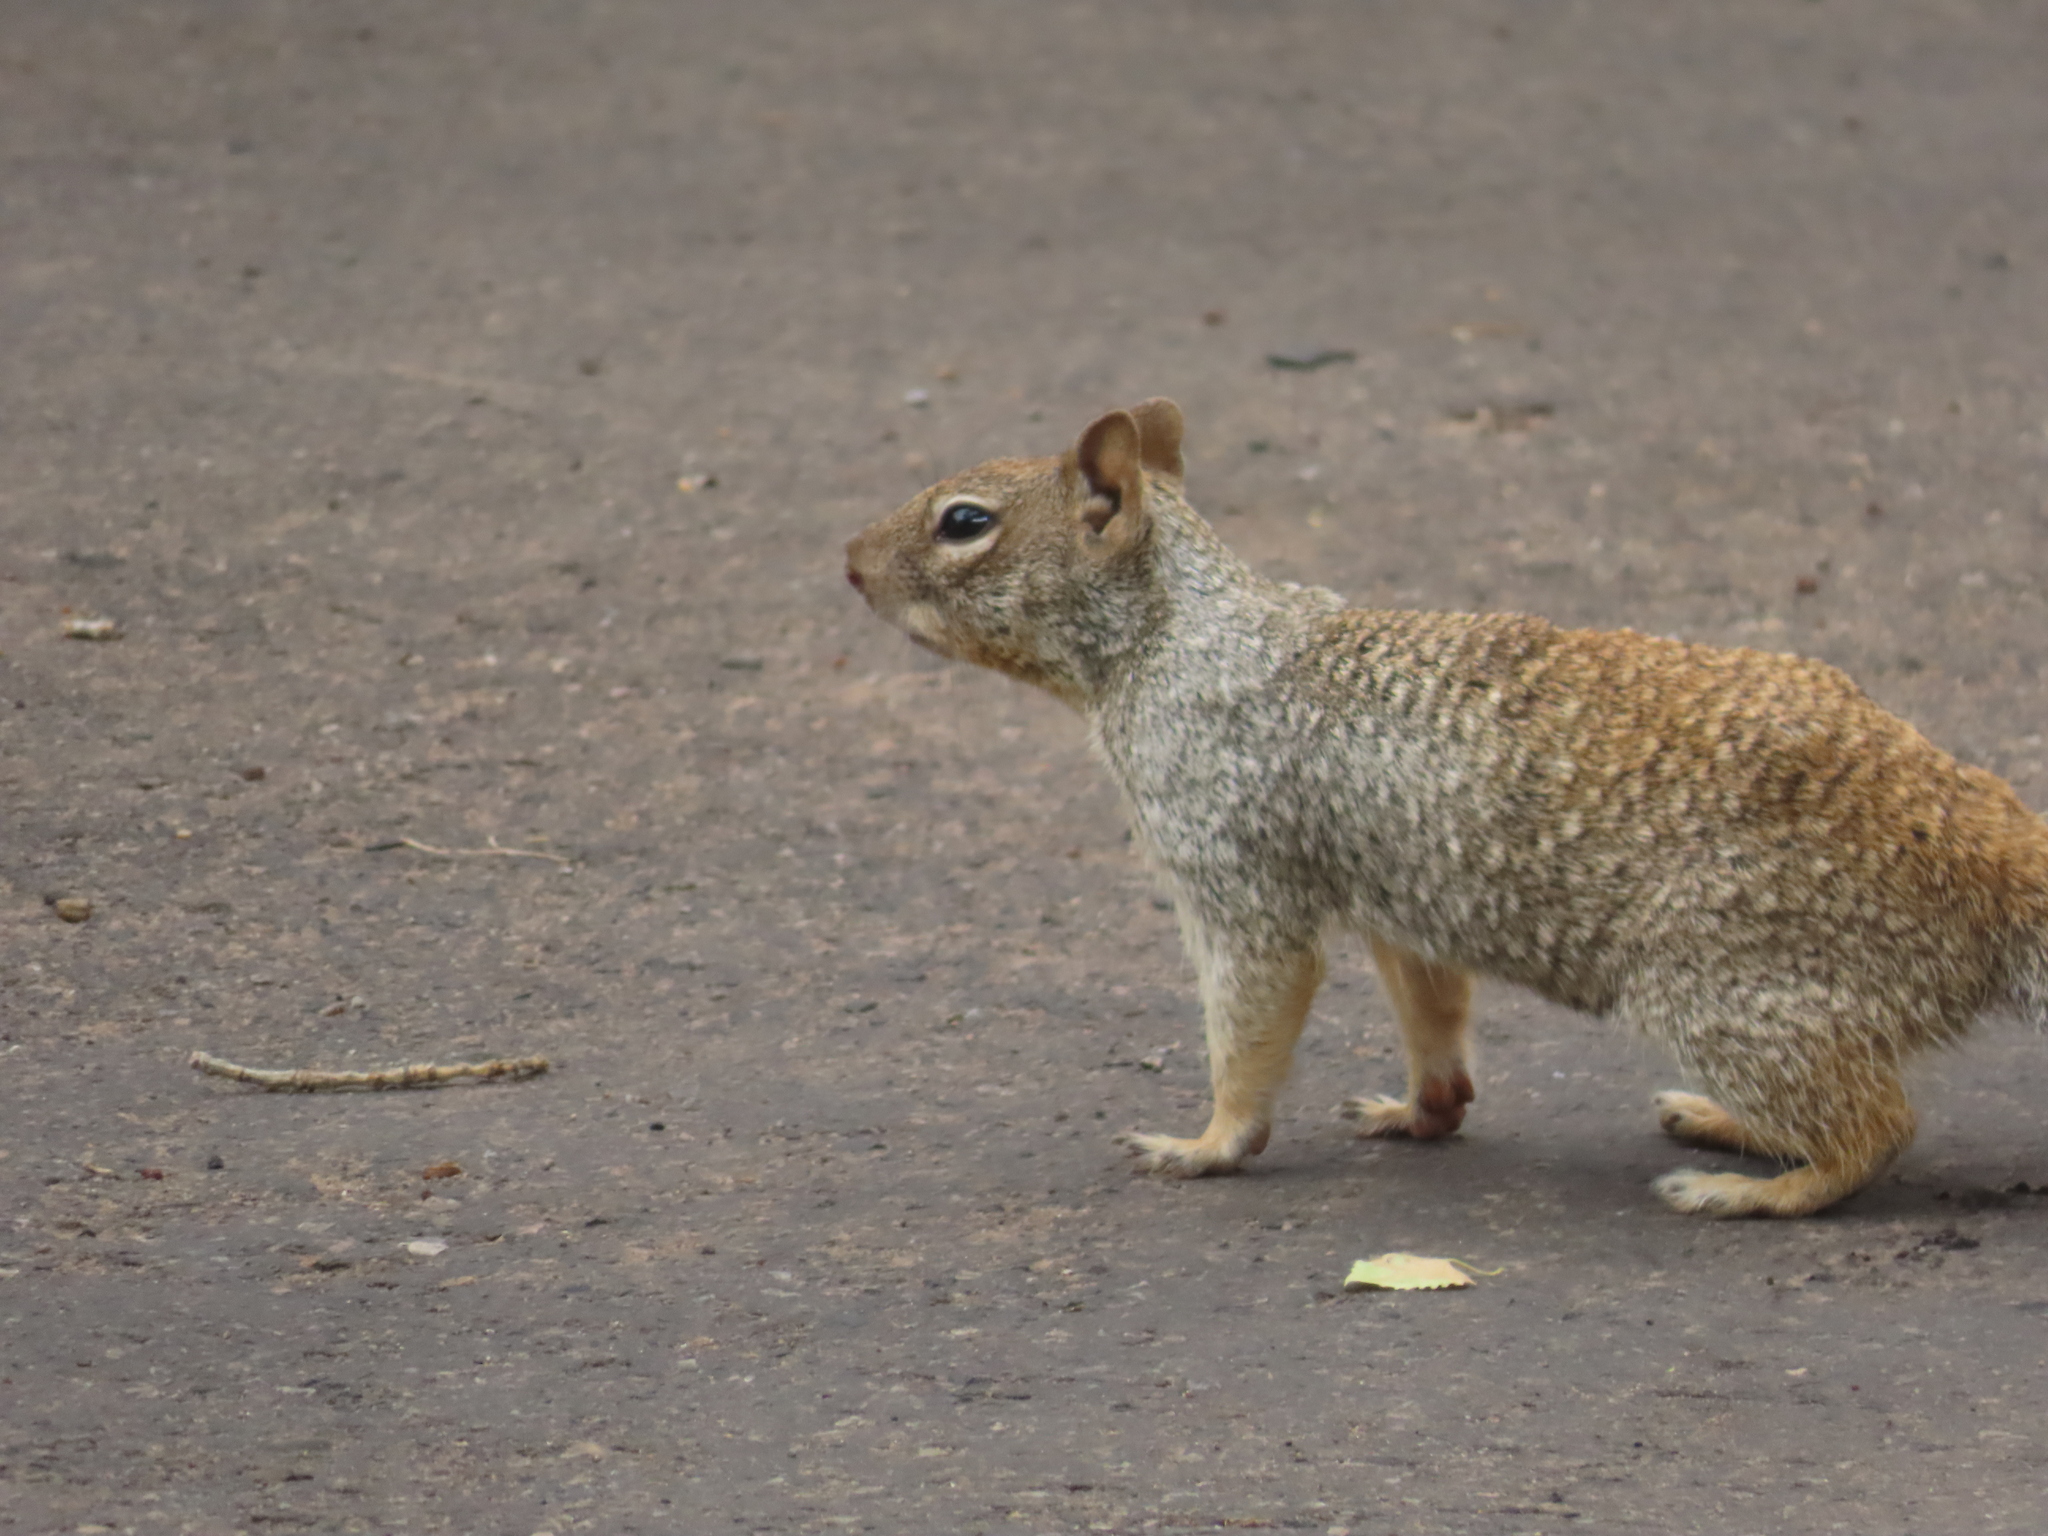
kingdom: Animalia
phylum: Chordata
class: Mammalia
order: Rodentia
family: Sciuridae
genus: Otospermophilus
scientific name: Otospermophilus variegatus
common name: Rock squirrel
